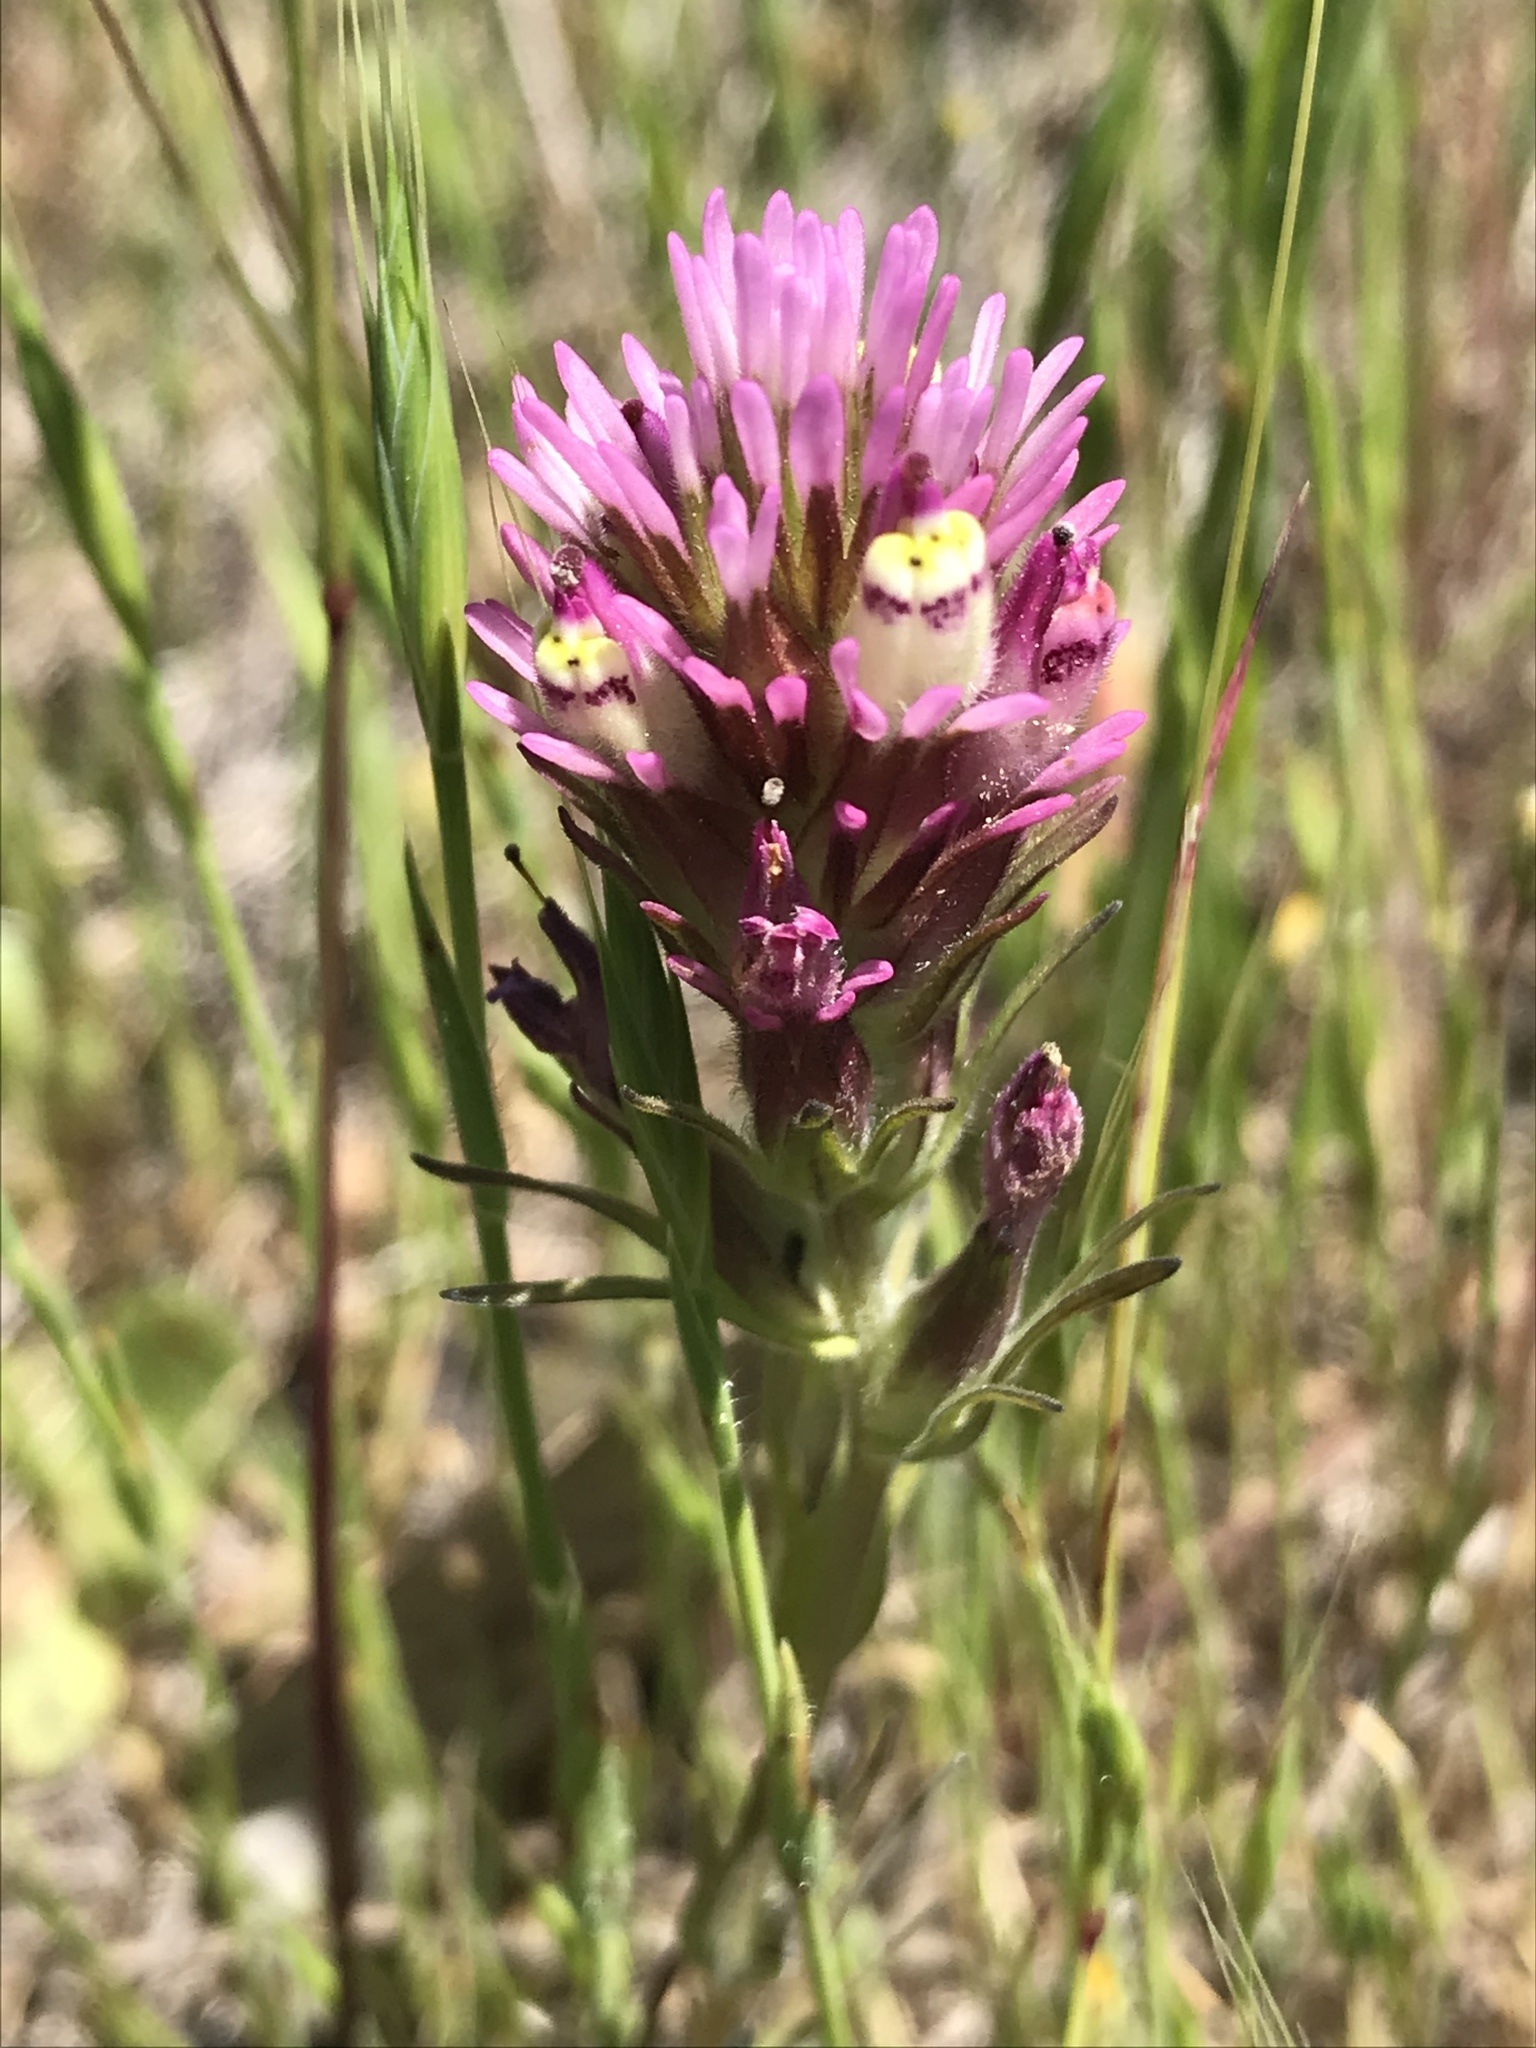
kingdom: Plantae
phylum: Tracheophyta
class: Magnoliopsida
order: Lamiales
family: Orobanchaceae
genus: Castilleja
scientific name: Castilleja densiflora
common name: Dense-flower indian paintbrush
